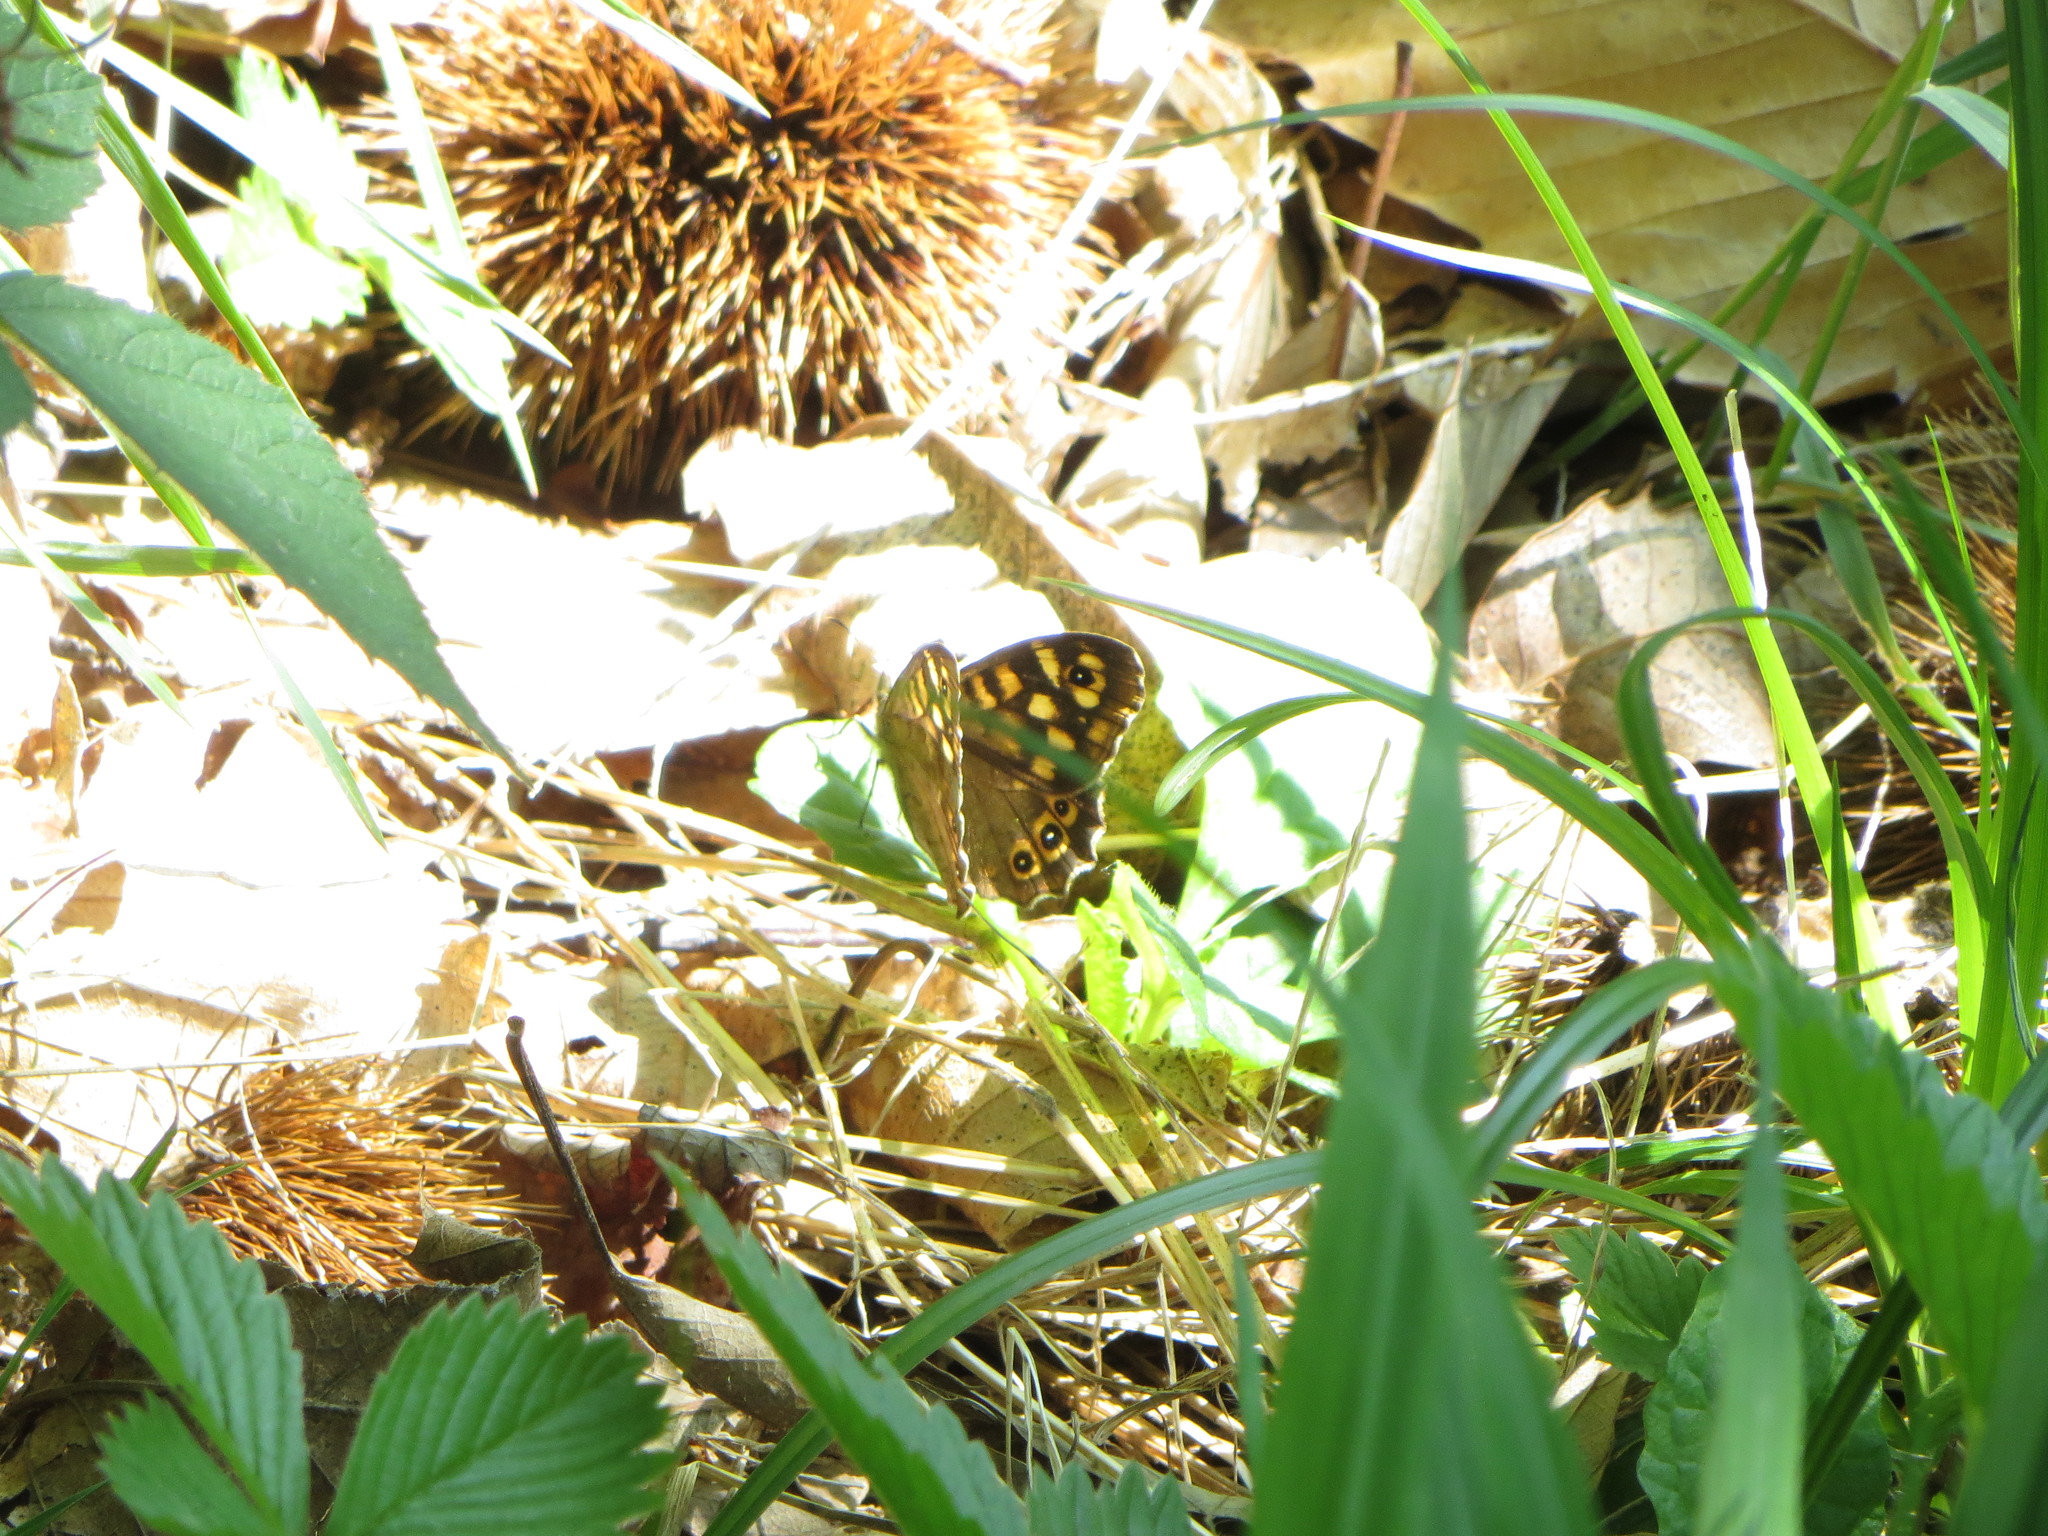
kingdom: Animalia
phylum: Arthropoda
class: Insecta
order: Lepidoptera
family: Nymphalidae
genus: Pararge
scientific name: Pararge aegeria
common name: Speckled wood
